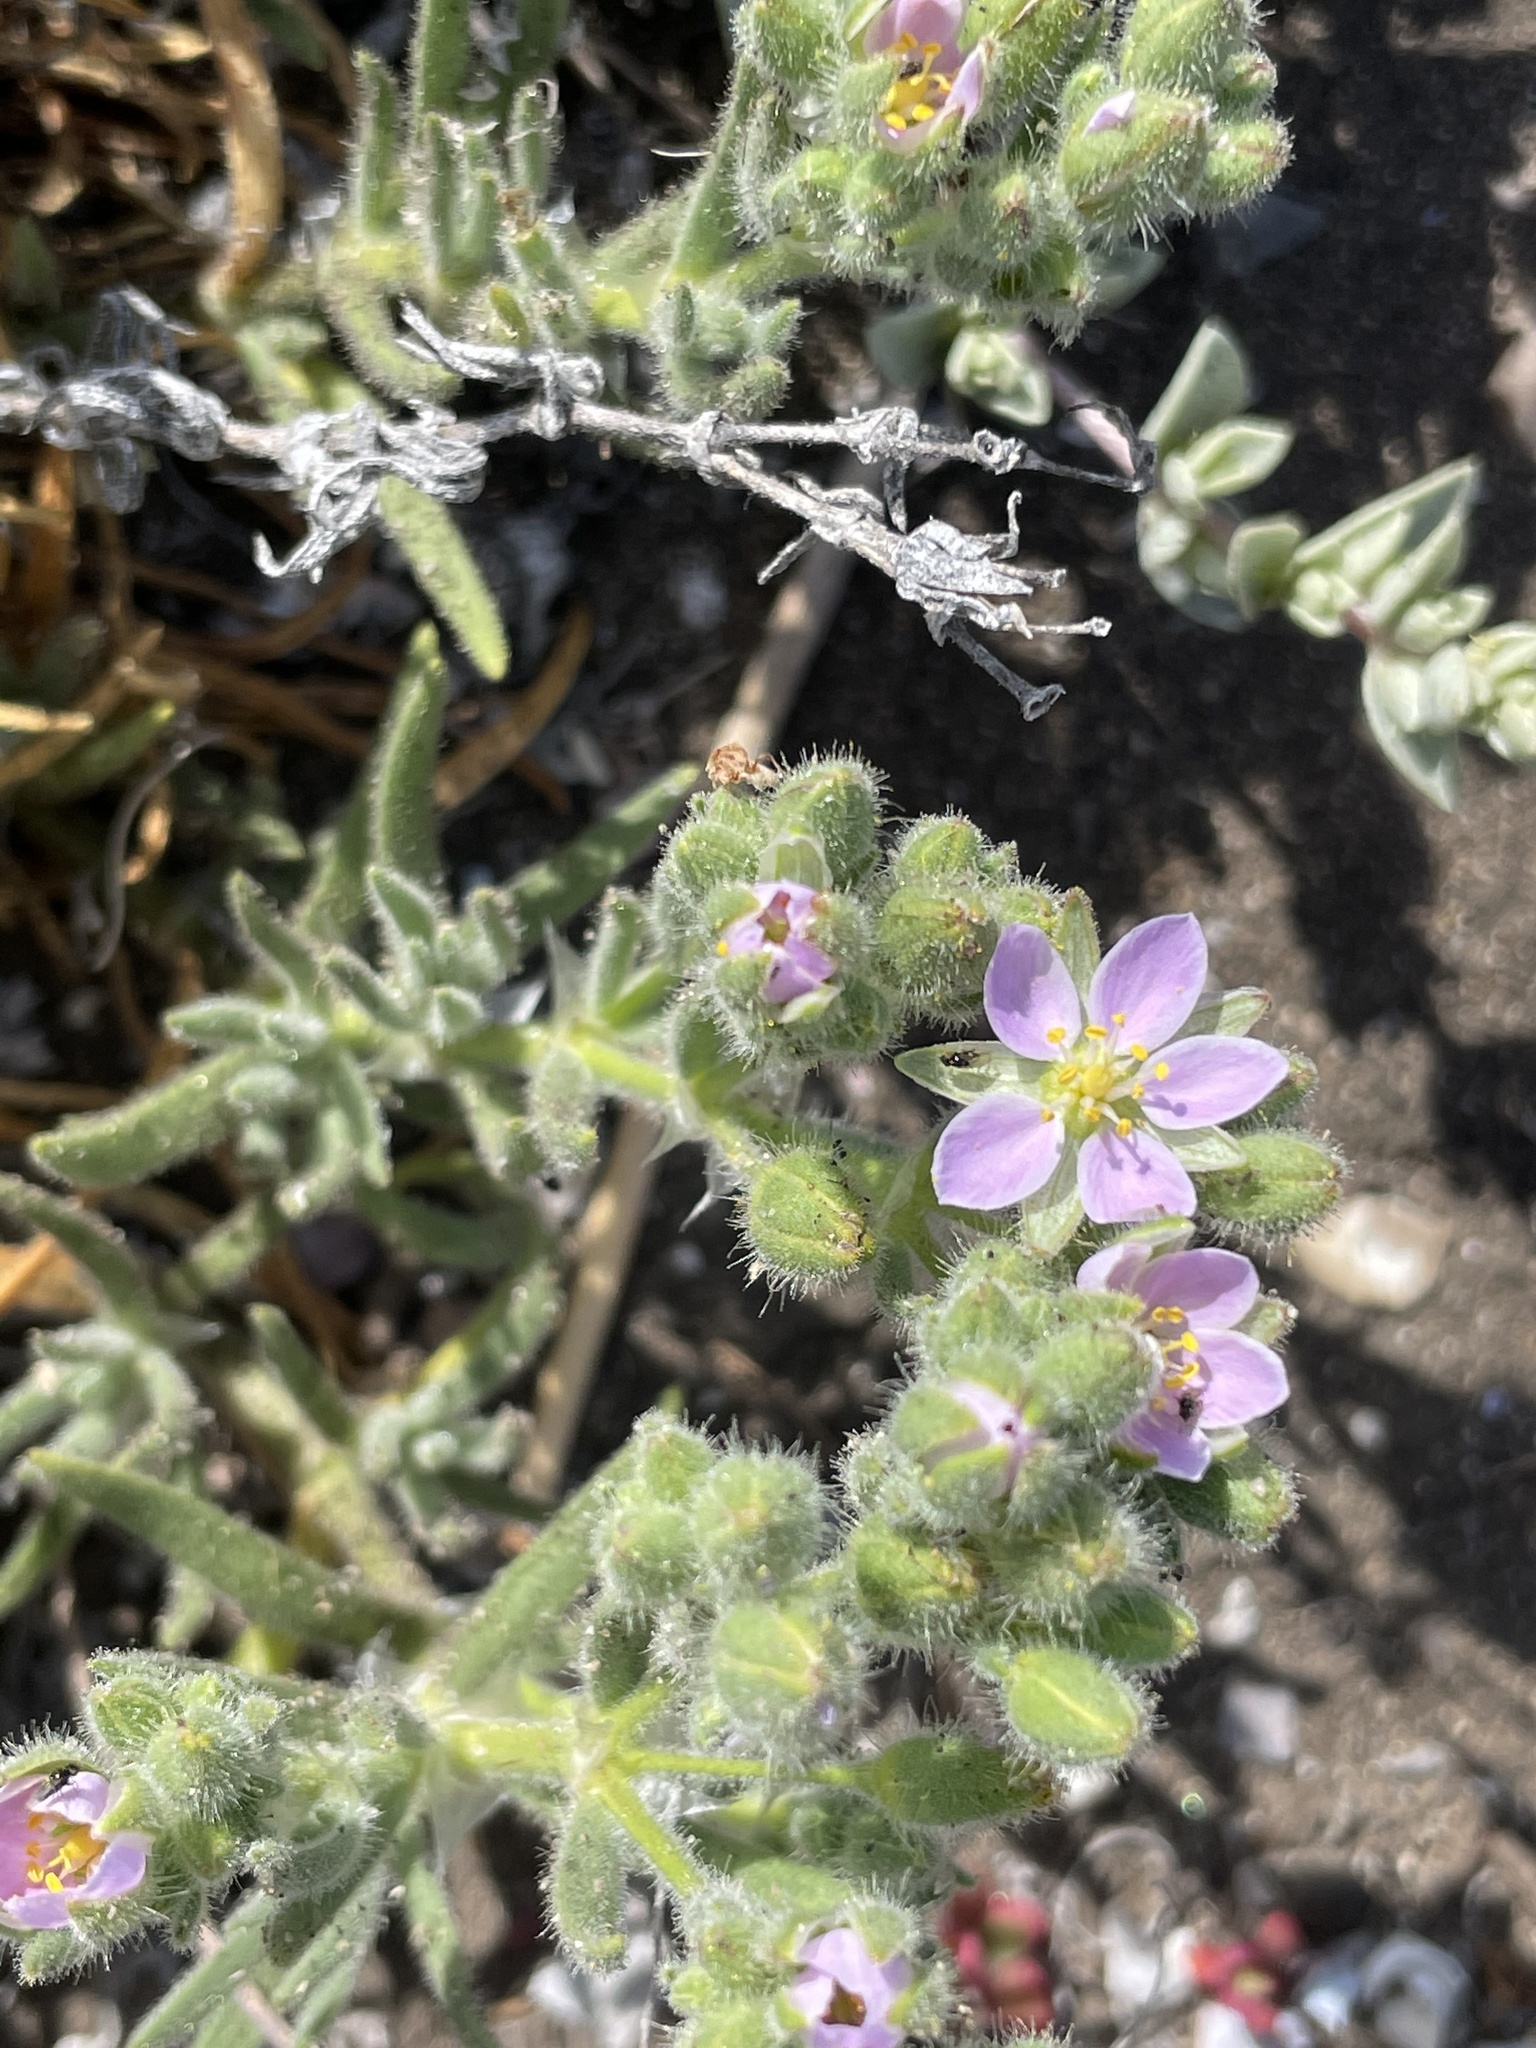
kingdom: Plantae
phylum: Tracheophyta
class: Magnoliopsida
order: Caryophyllales
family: Caryophyllaceae
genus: Spergularia
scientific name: Spergularia villosa
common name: Hairy sandspurry
